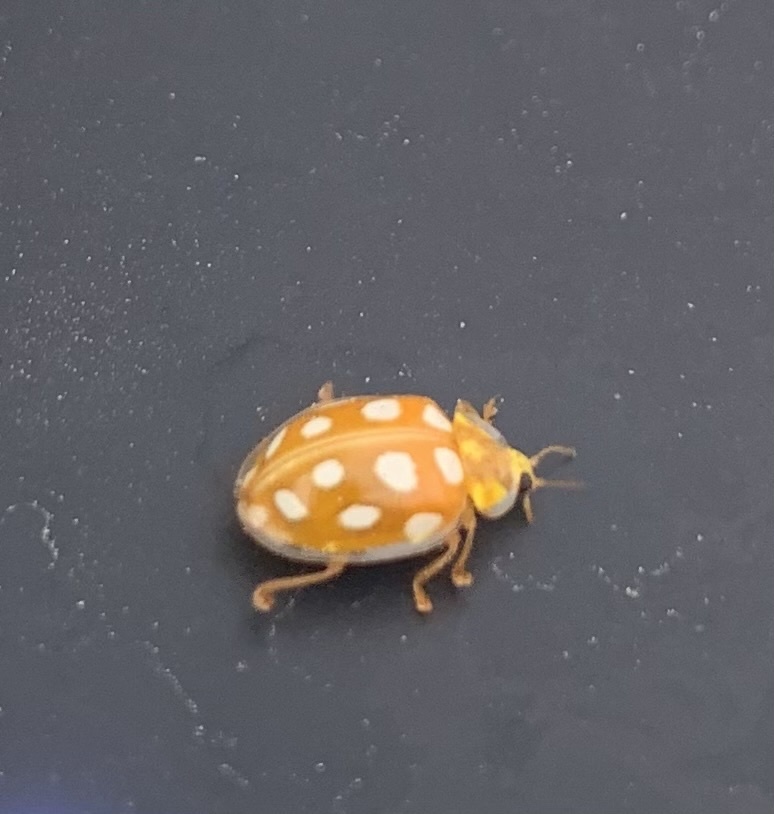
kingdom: Animalia
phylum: Arthropoda
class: Insecta
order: Coleoptera
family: Coccinellidae
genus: Halyzia
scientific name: Halyzia sedecimguttata
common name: Orange ladybird
